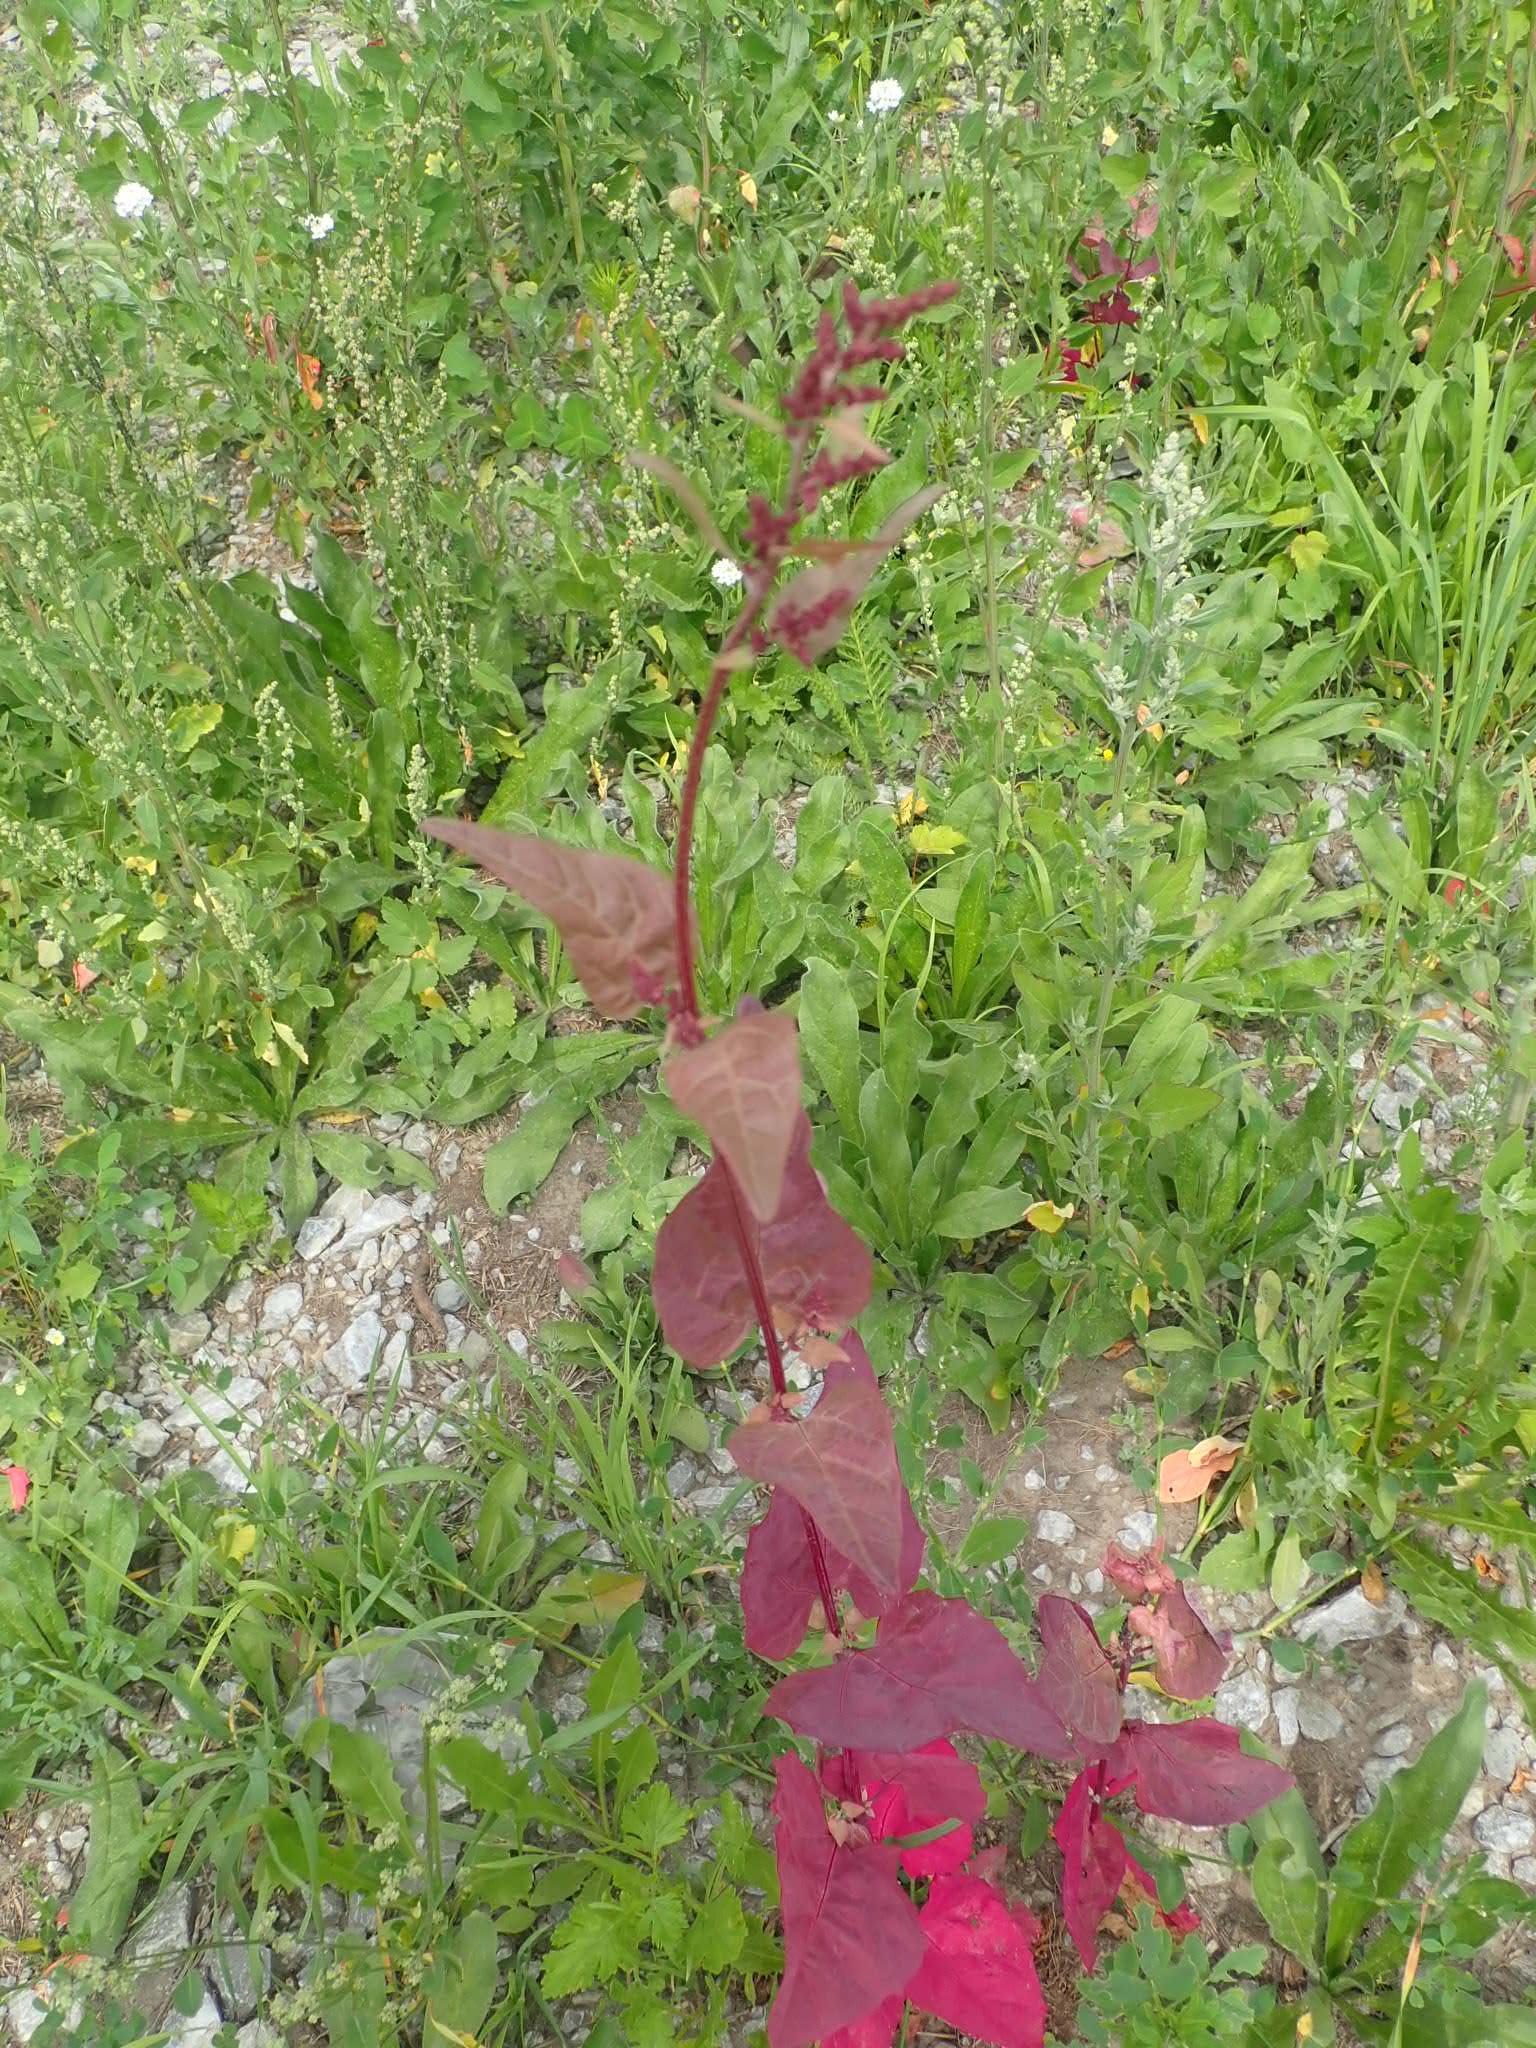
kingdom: Plantae
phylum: Tracheophyta
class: Magnoliopsida
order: Caryophyllales
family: Amaranthaceae
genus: Atriplex
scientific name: Atriplex hortensis
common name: Garden orache
